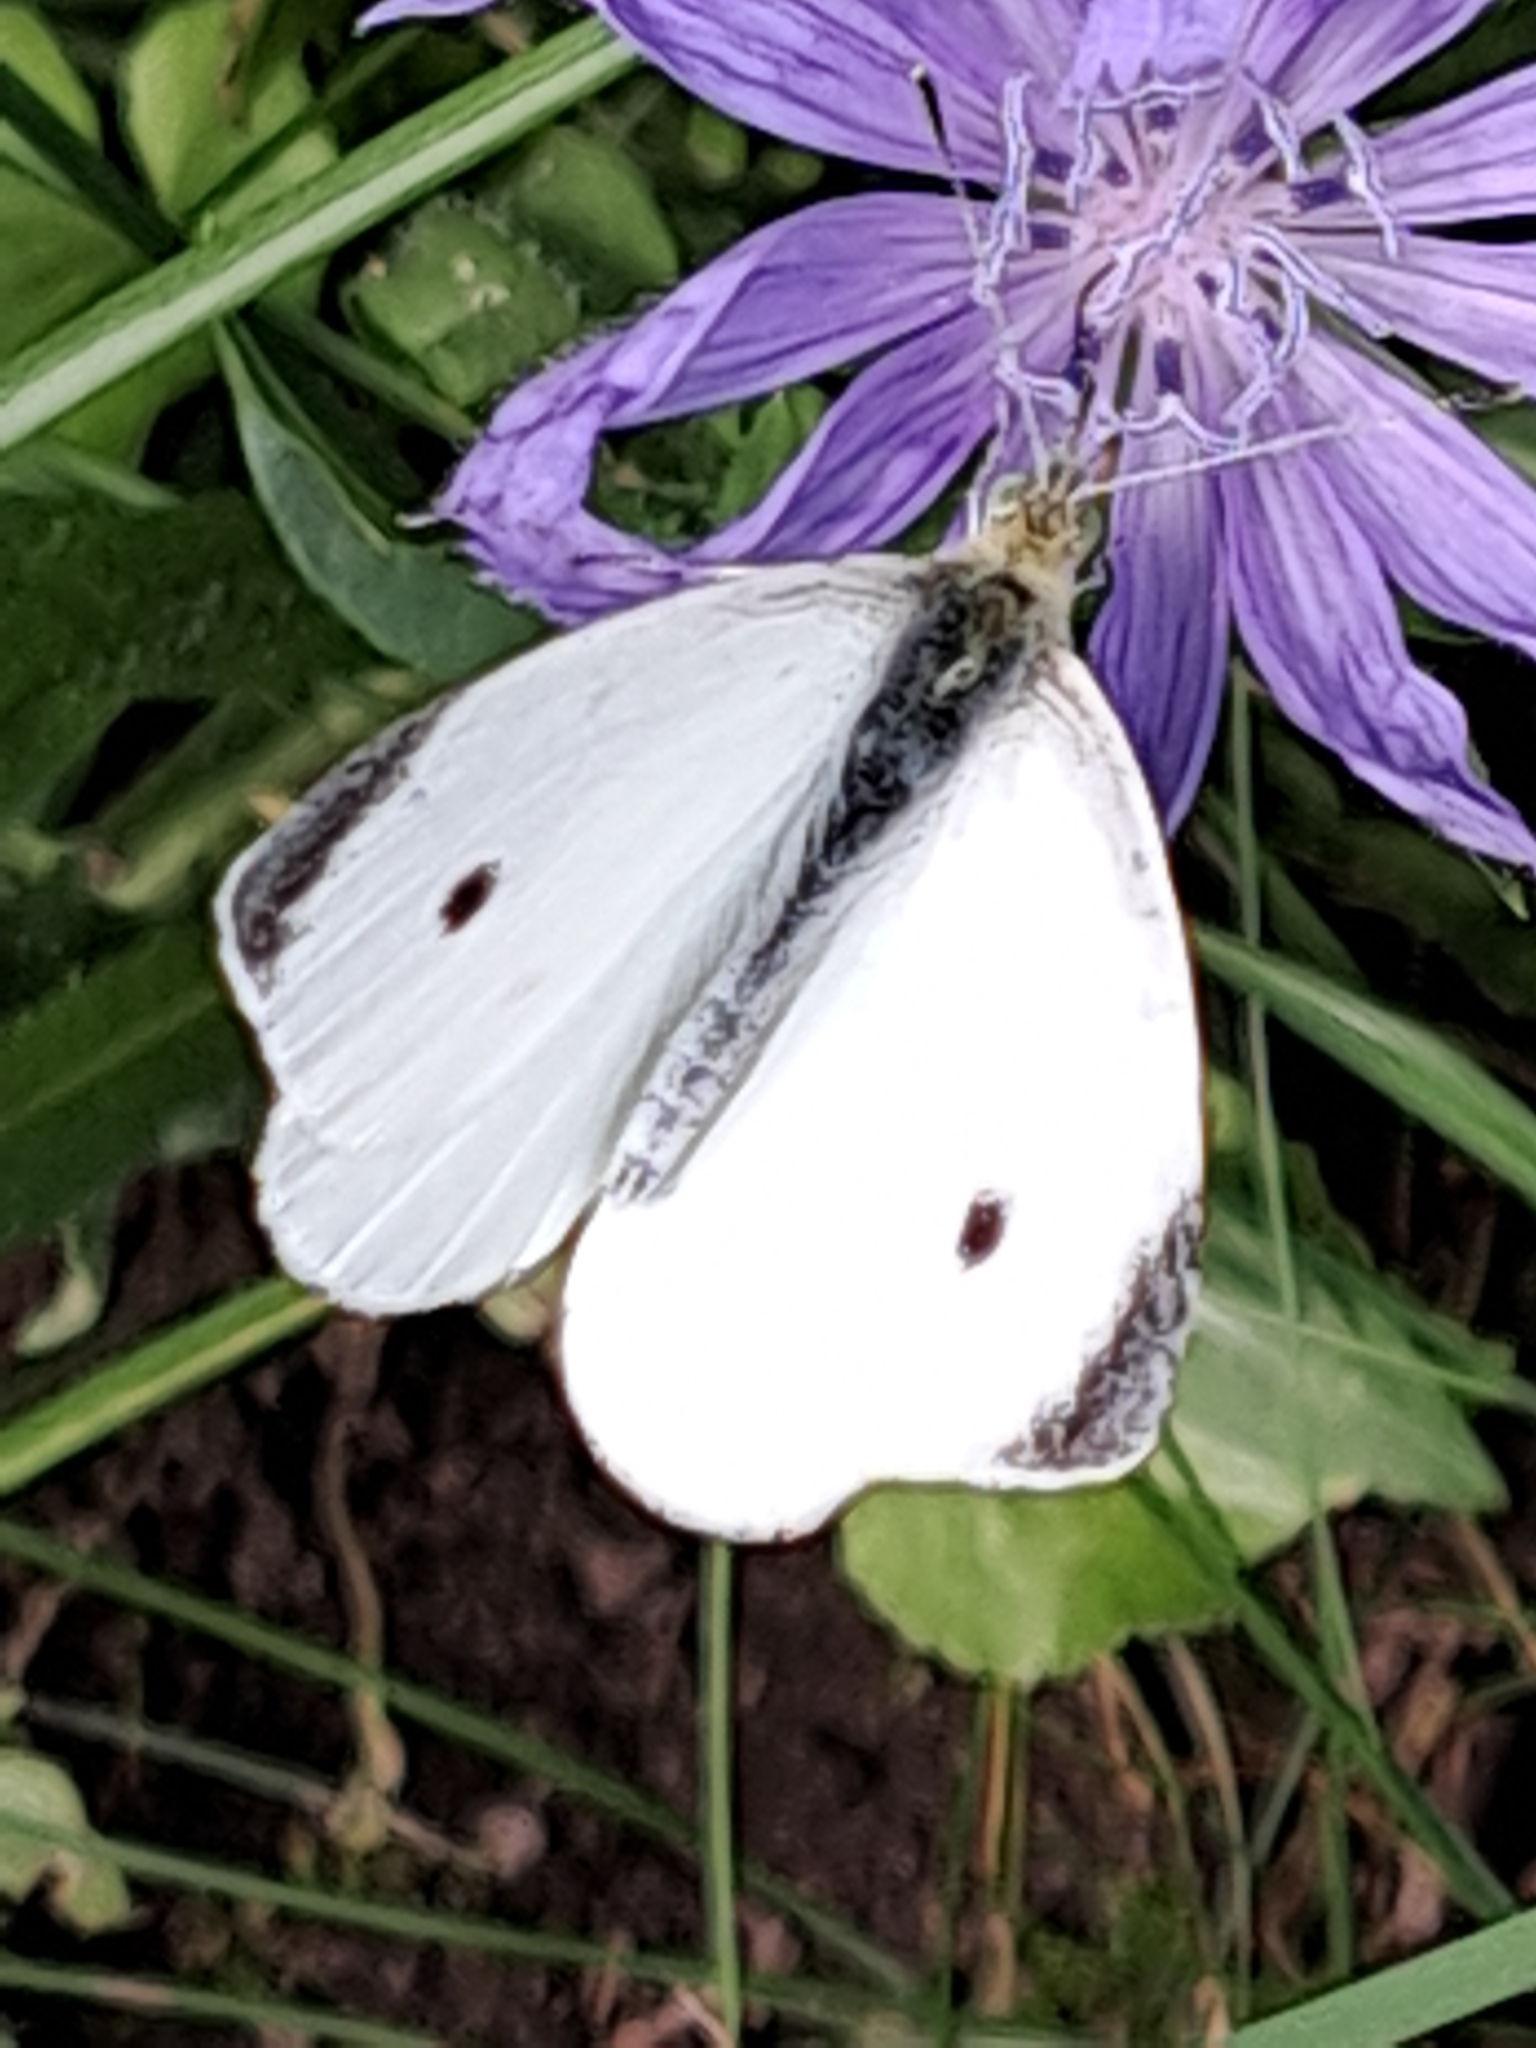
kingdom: Animalia
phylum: Arthropoda
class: Insecta
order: Lepidoptera
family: Pieridae
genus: Pieris
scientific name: Pieris rapae
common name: Small white
